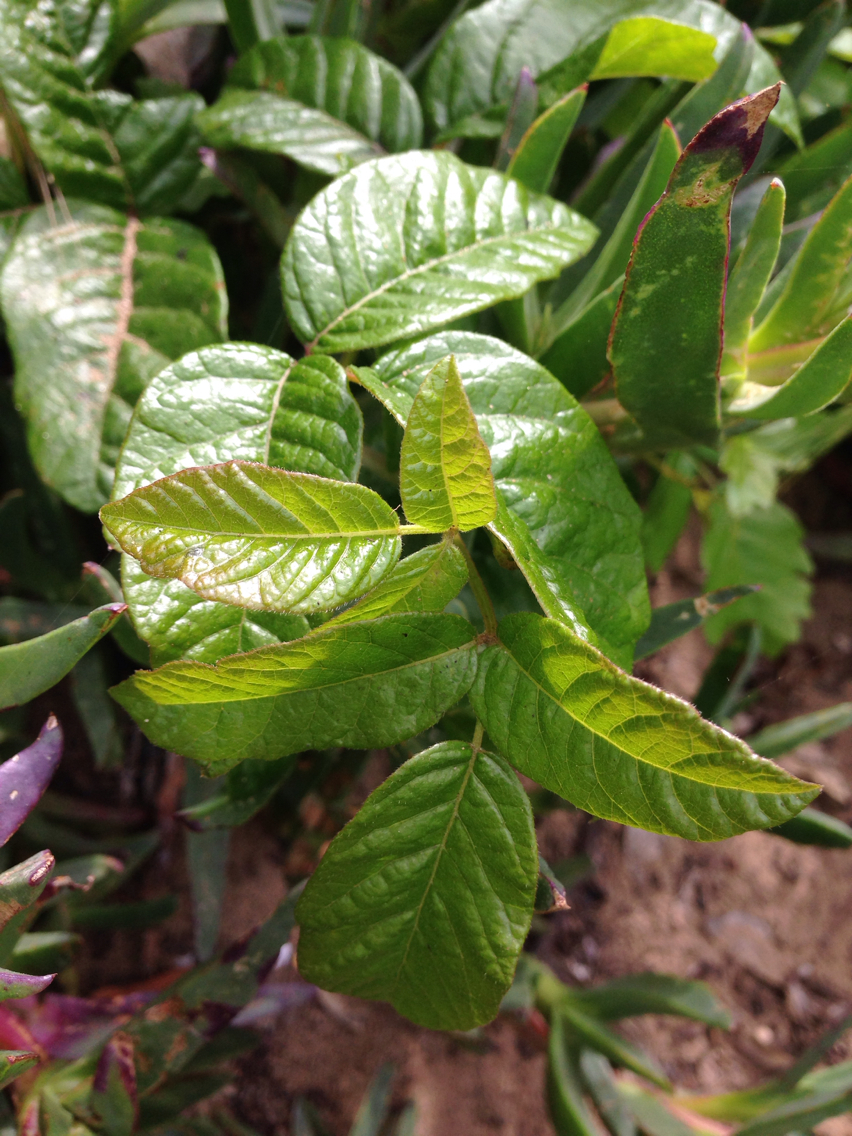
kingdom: Plantae
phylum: Tracheophyta
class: Magnoliopsida
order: Sapindales
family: Anacardiaceae
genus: Toxicodendron
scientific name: Toxicodendron diversilobum
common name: Pacific poison-oak
